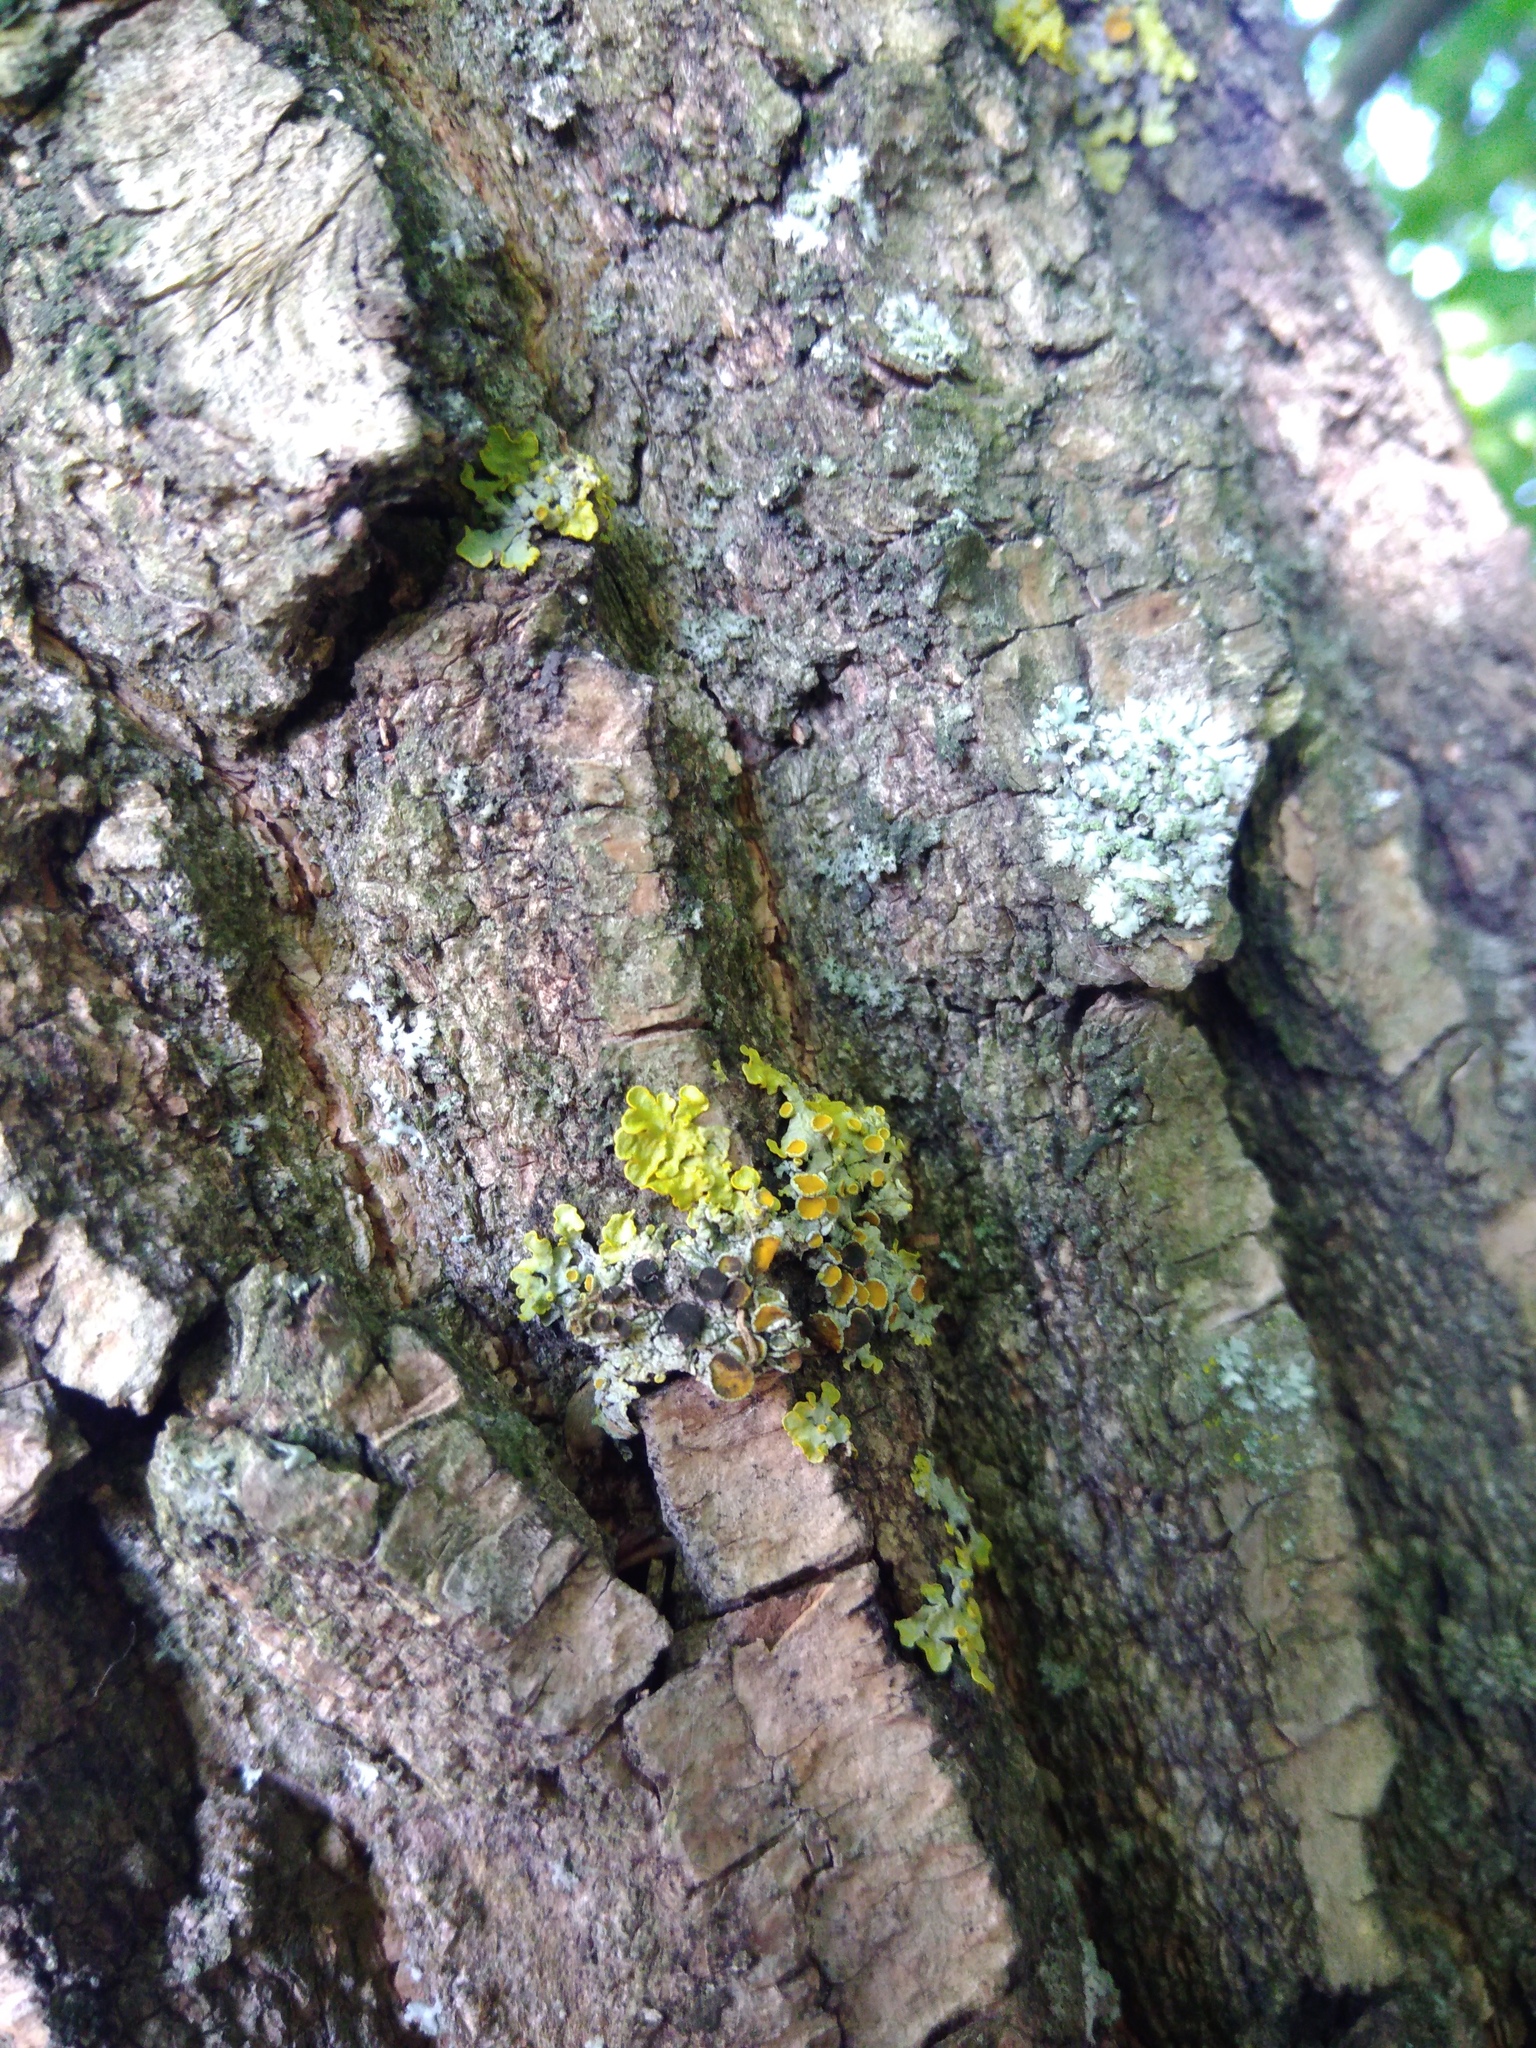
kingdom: Fungi
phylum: Ascomycota
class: Dothideomycetes
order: Mycosphaerellales
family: Teratosphaeriaceae
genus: Xanthoriicola
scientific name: Xanthoriicola physciae
